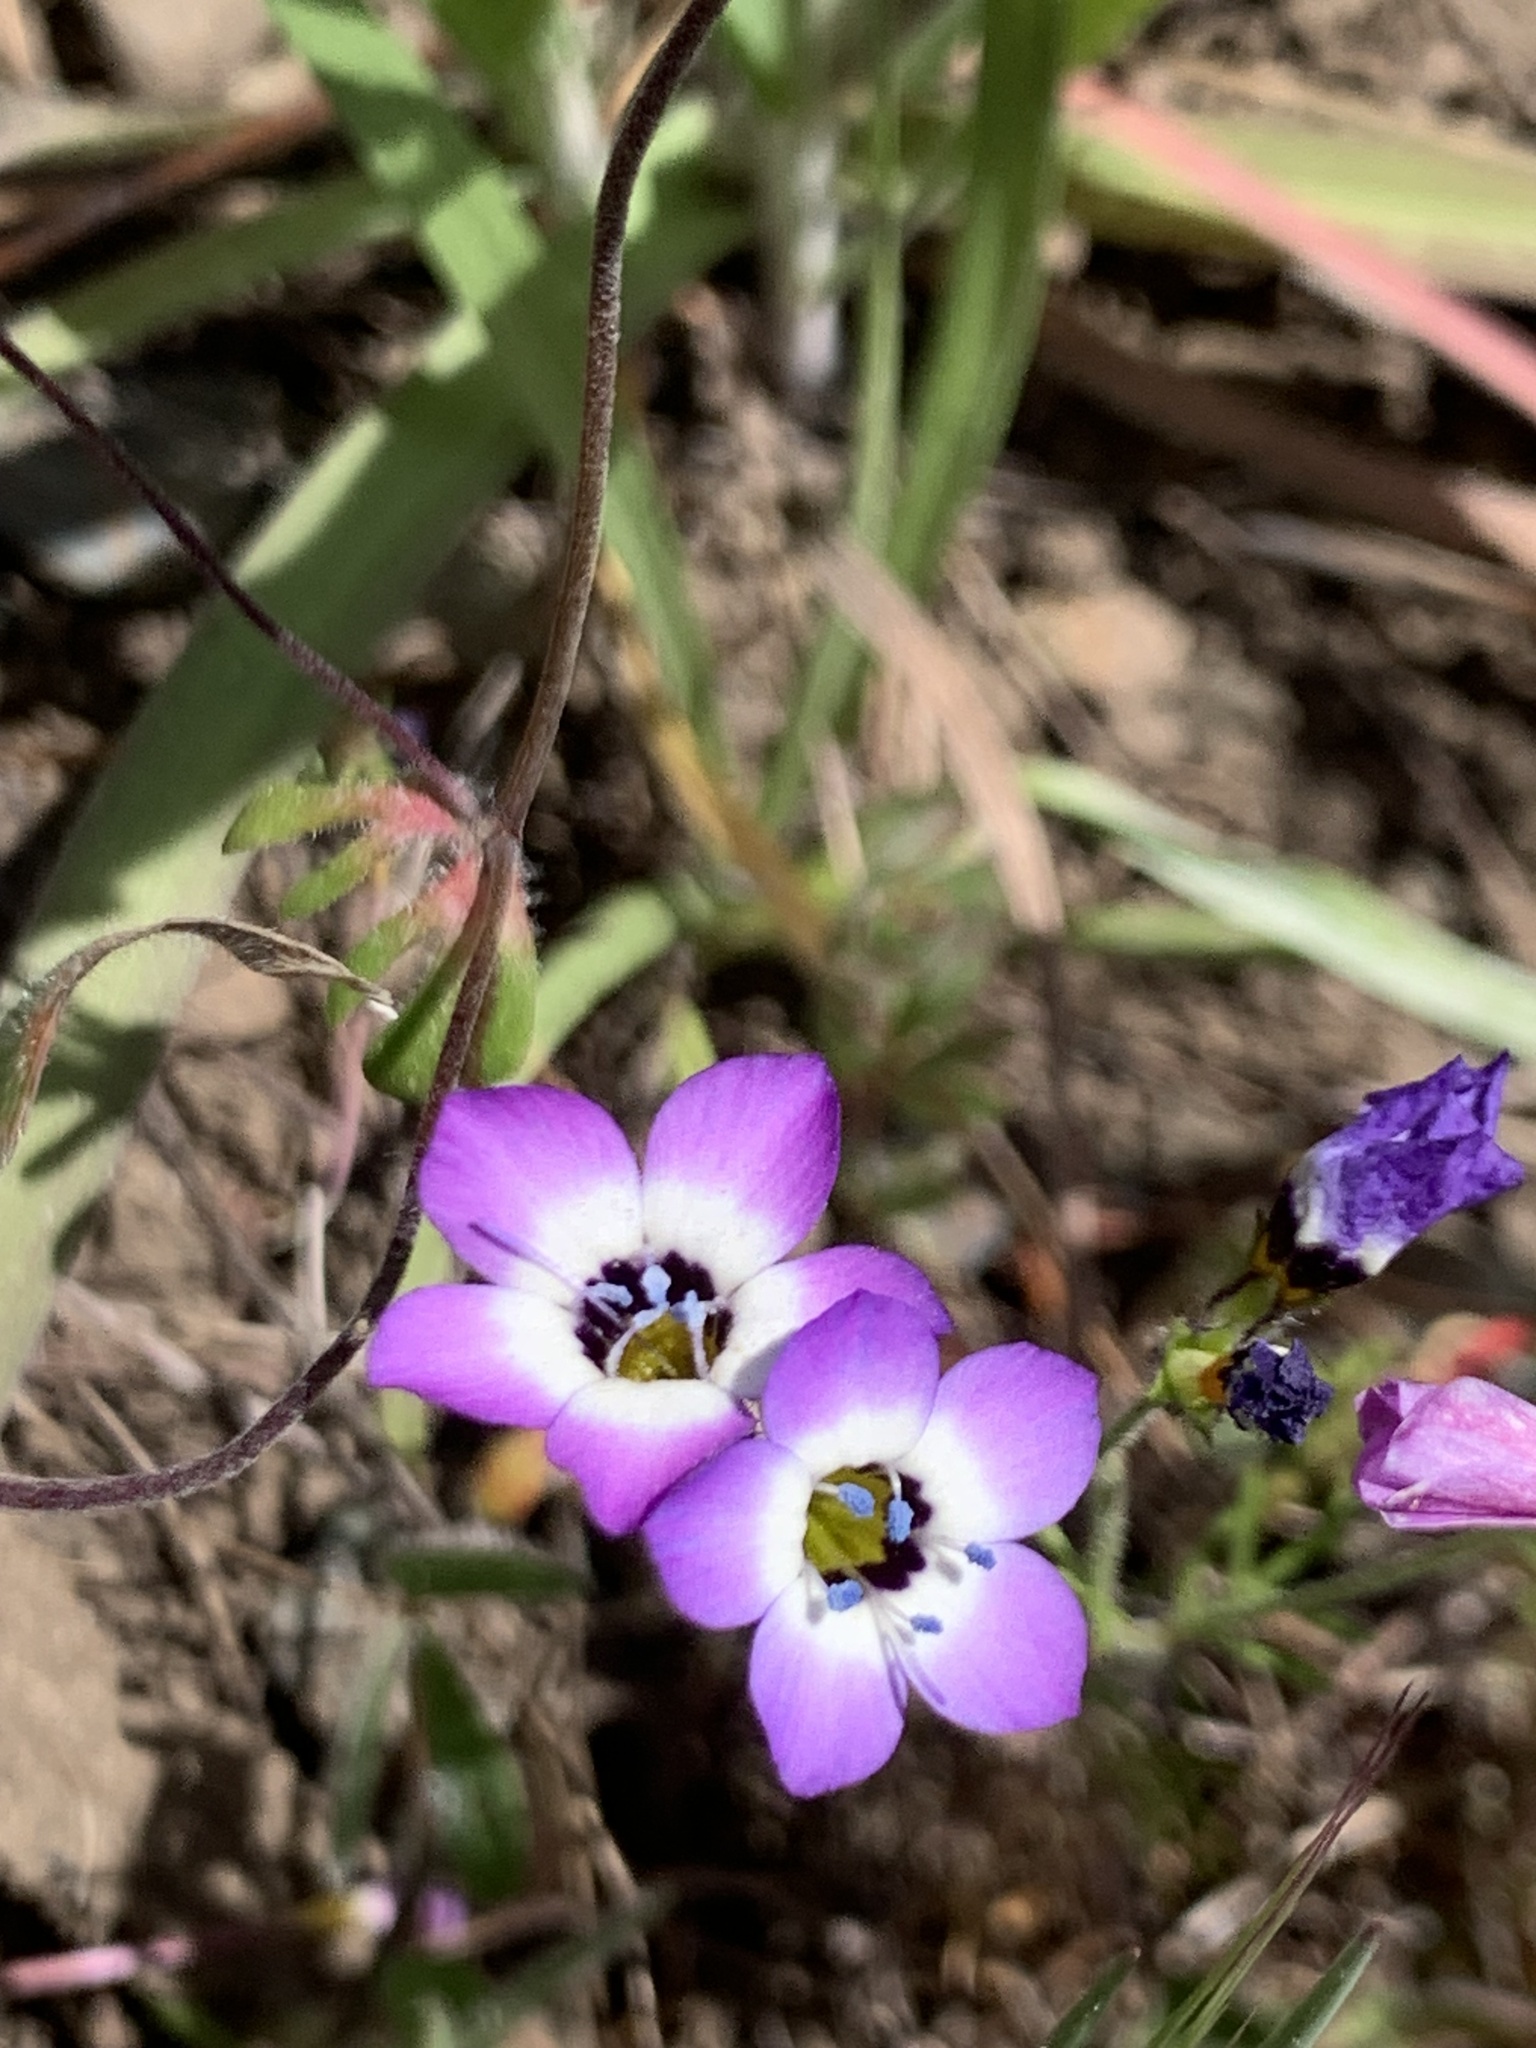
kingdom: Plantae
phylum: Tracheophyta
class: Magnoliopsida
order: Ericales
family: Polemoniaceae
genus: Gilia
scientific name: Gilia tricolor
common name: Bird's-eyes
